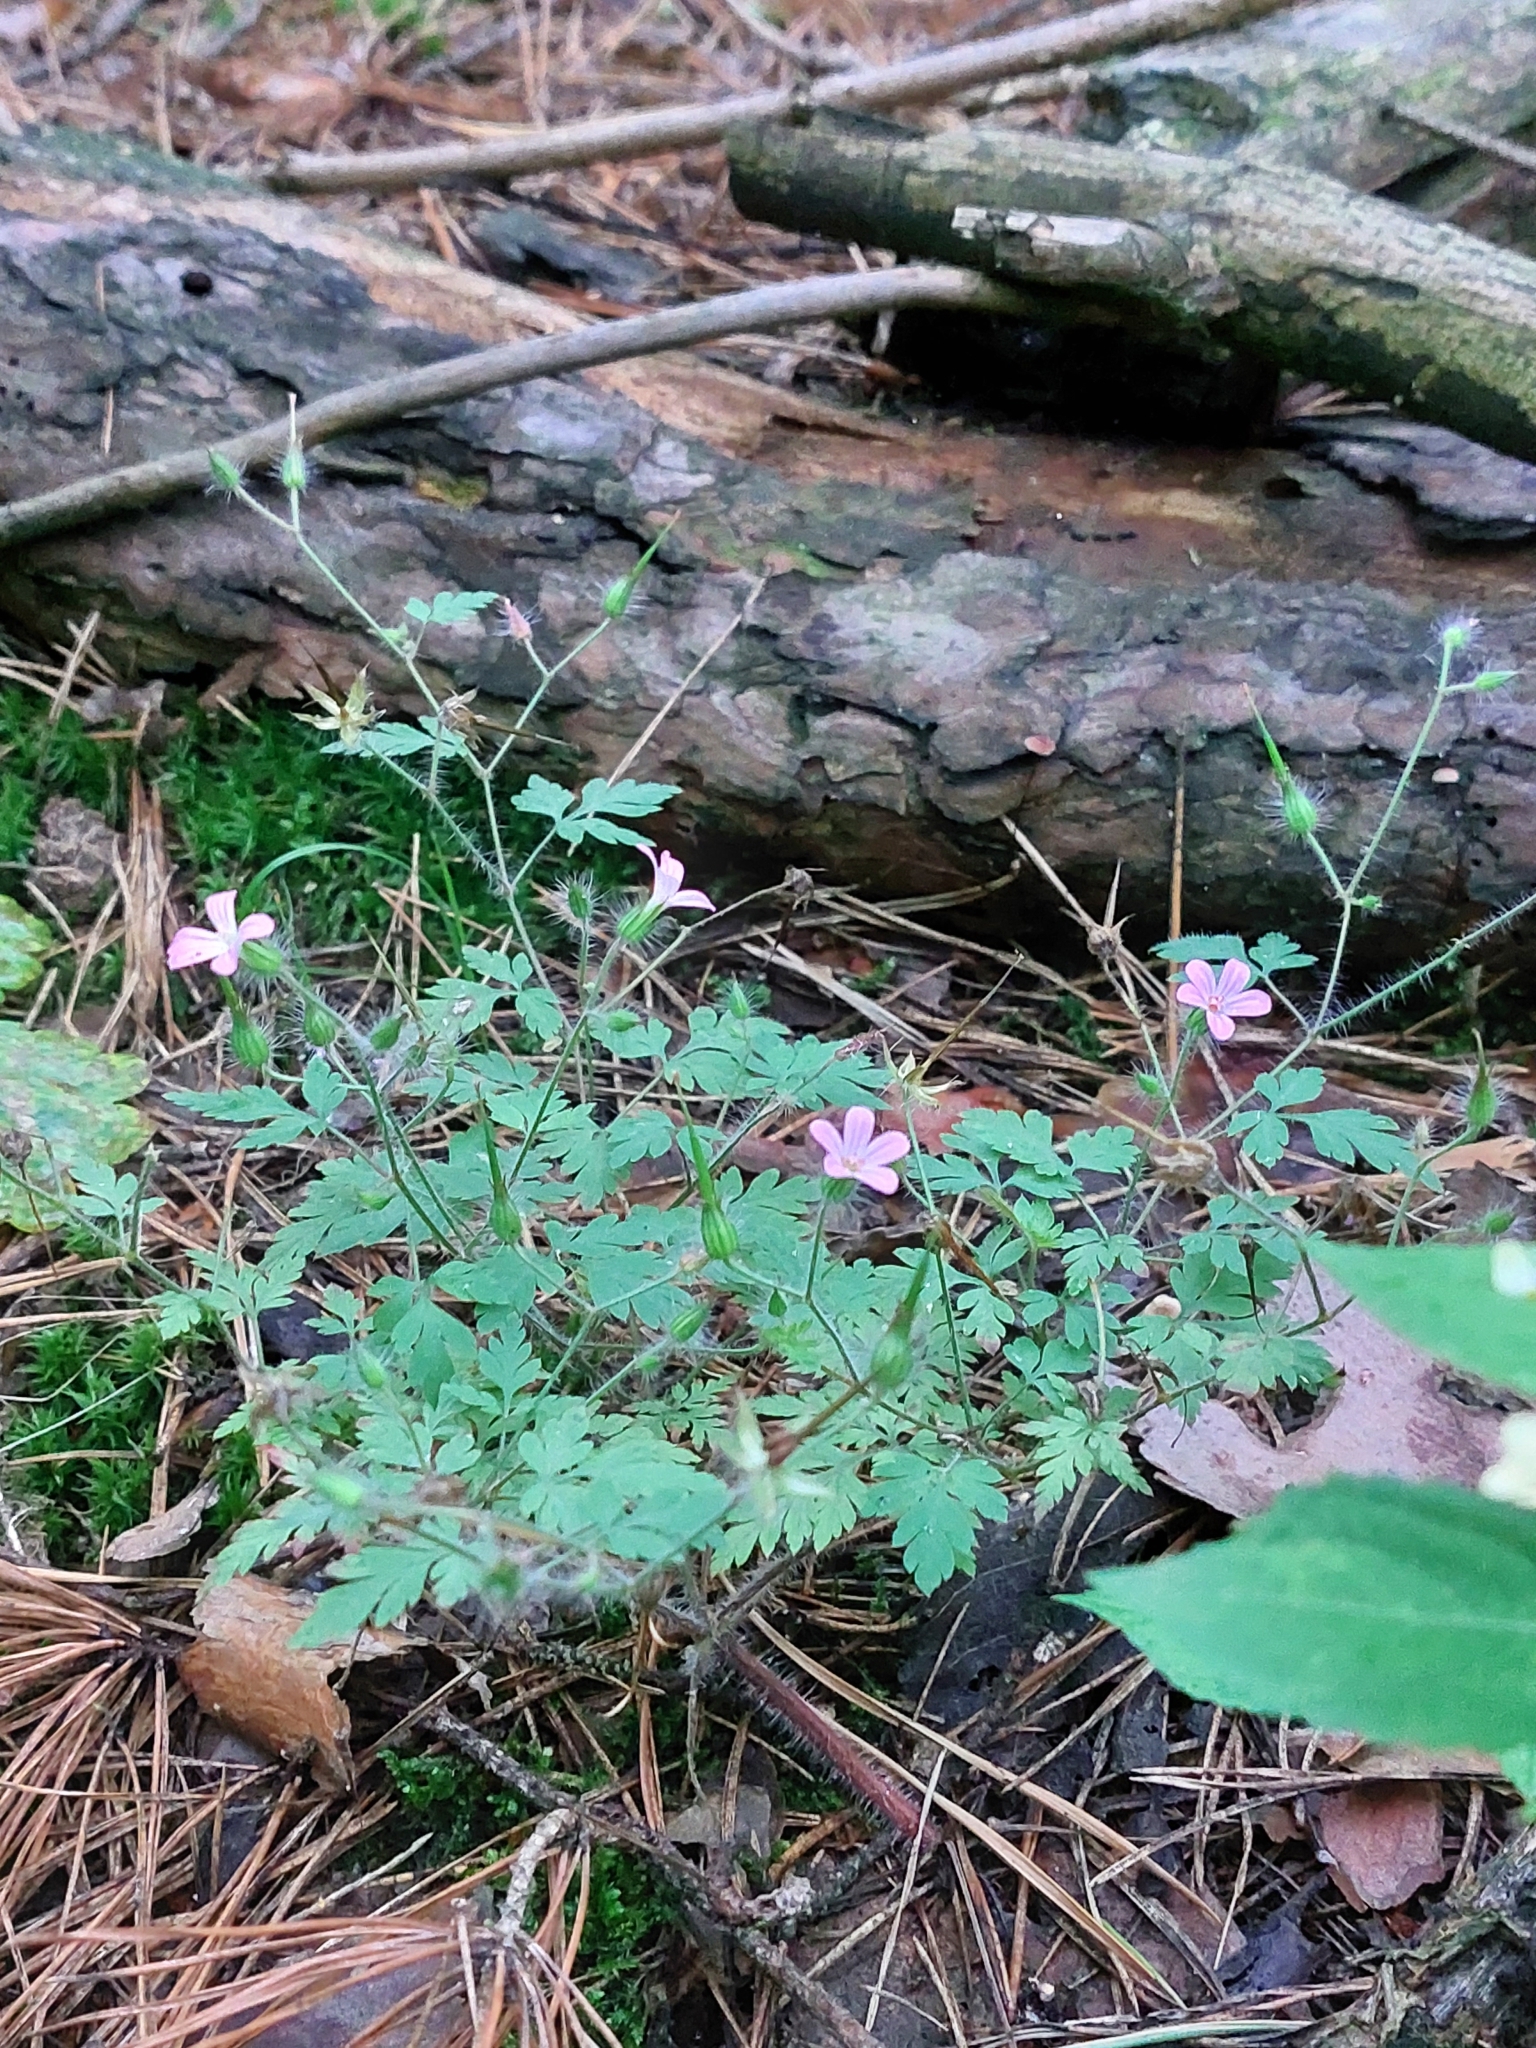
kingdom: Plantae
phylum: Tracheophyta
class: Magnoliopsida
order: Geraniales
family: Geraniaceae
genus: Geranium
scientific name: Geranium robertianum
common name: Herb-robert
